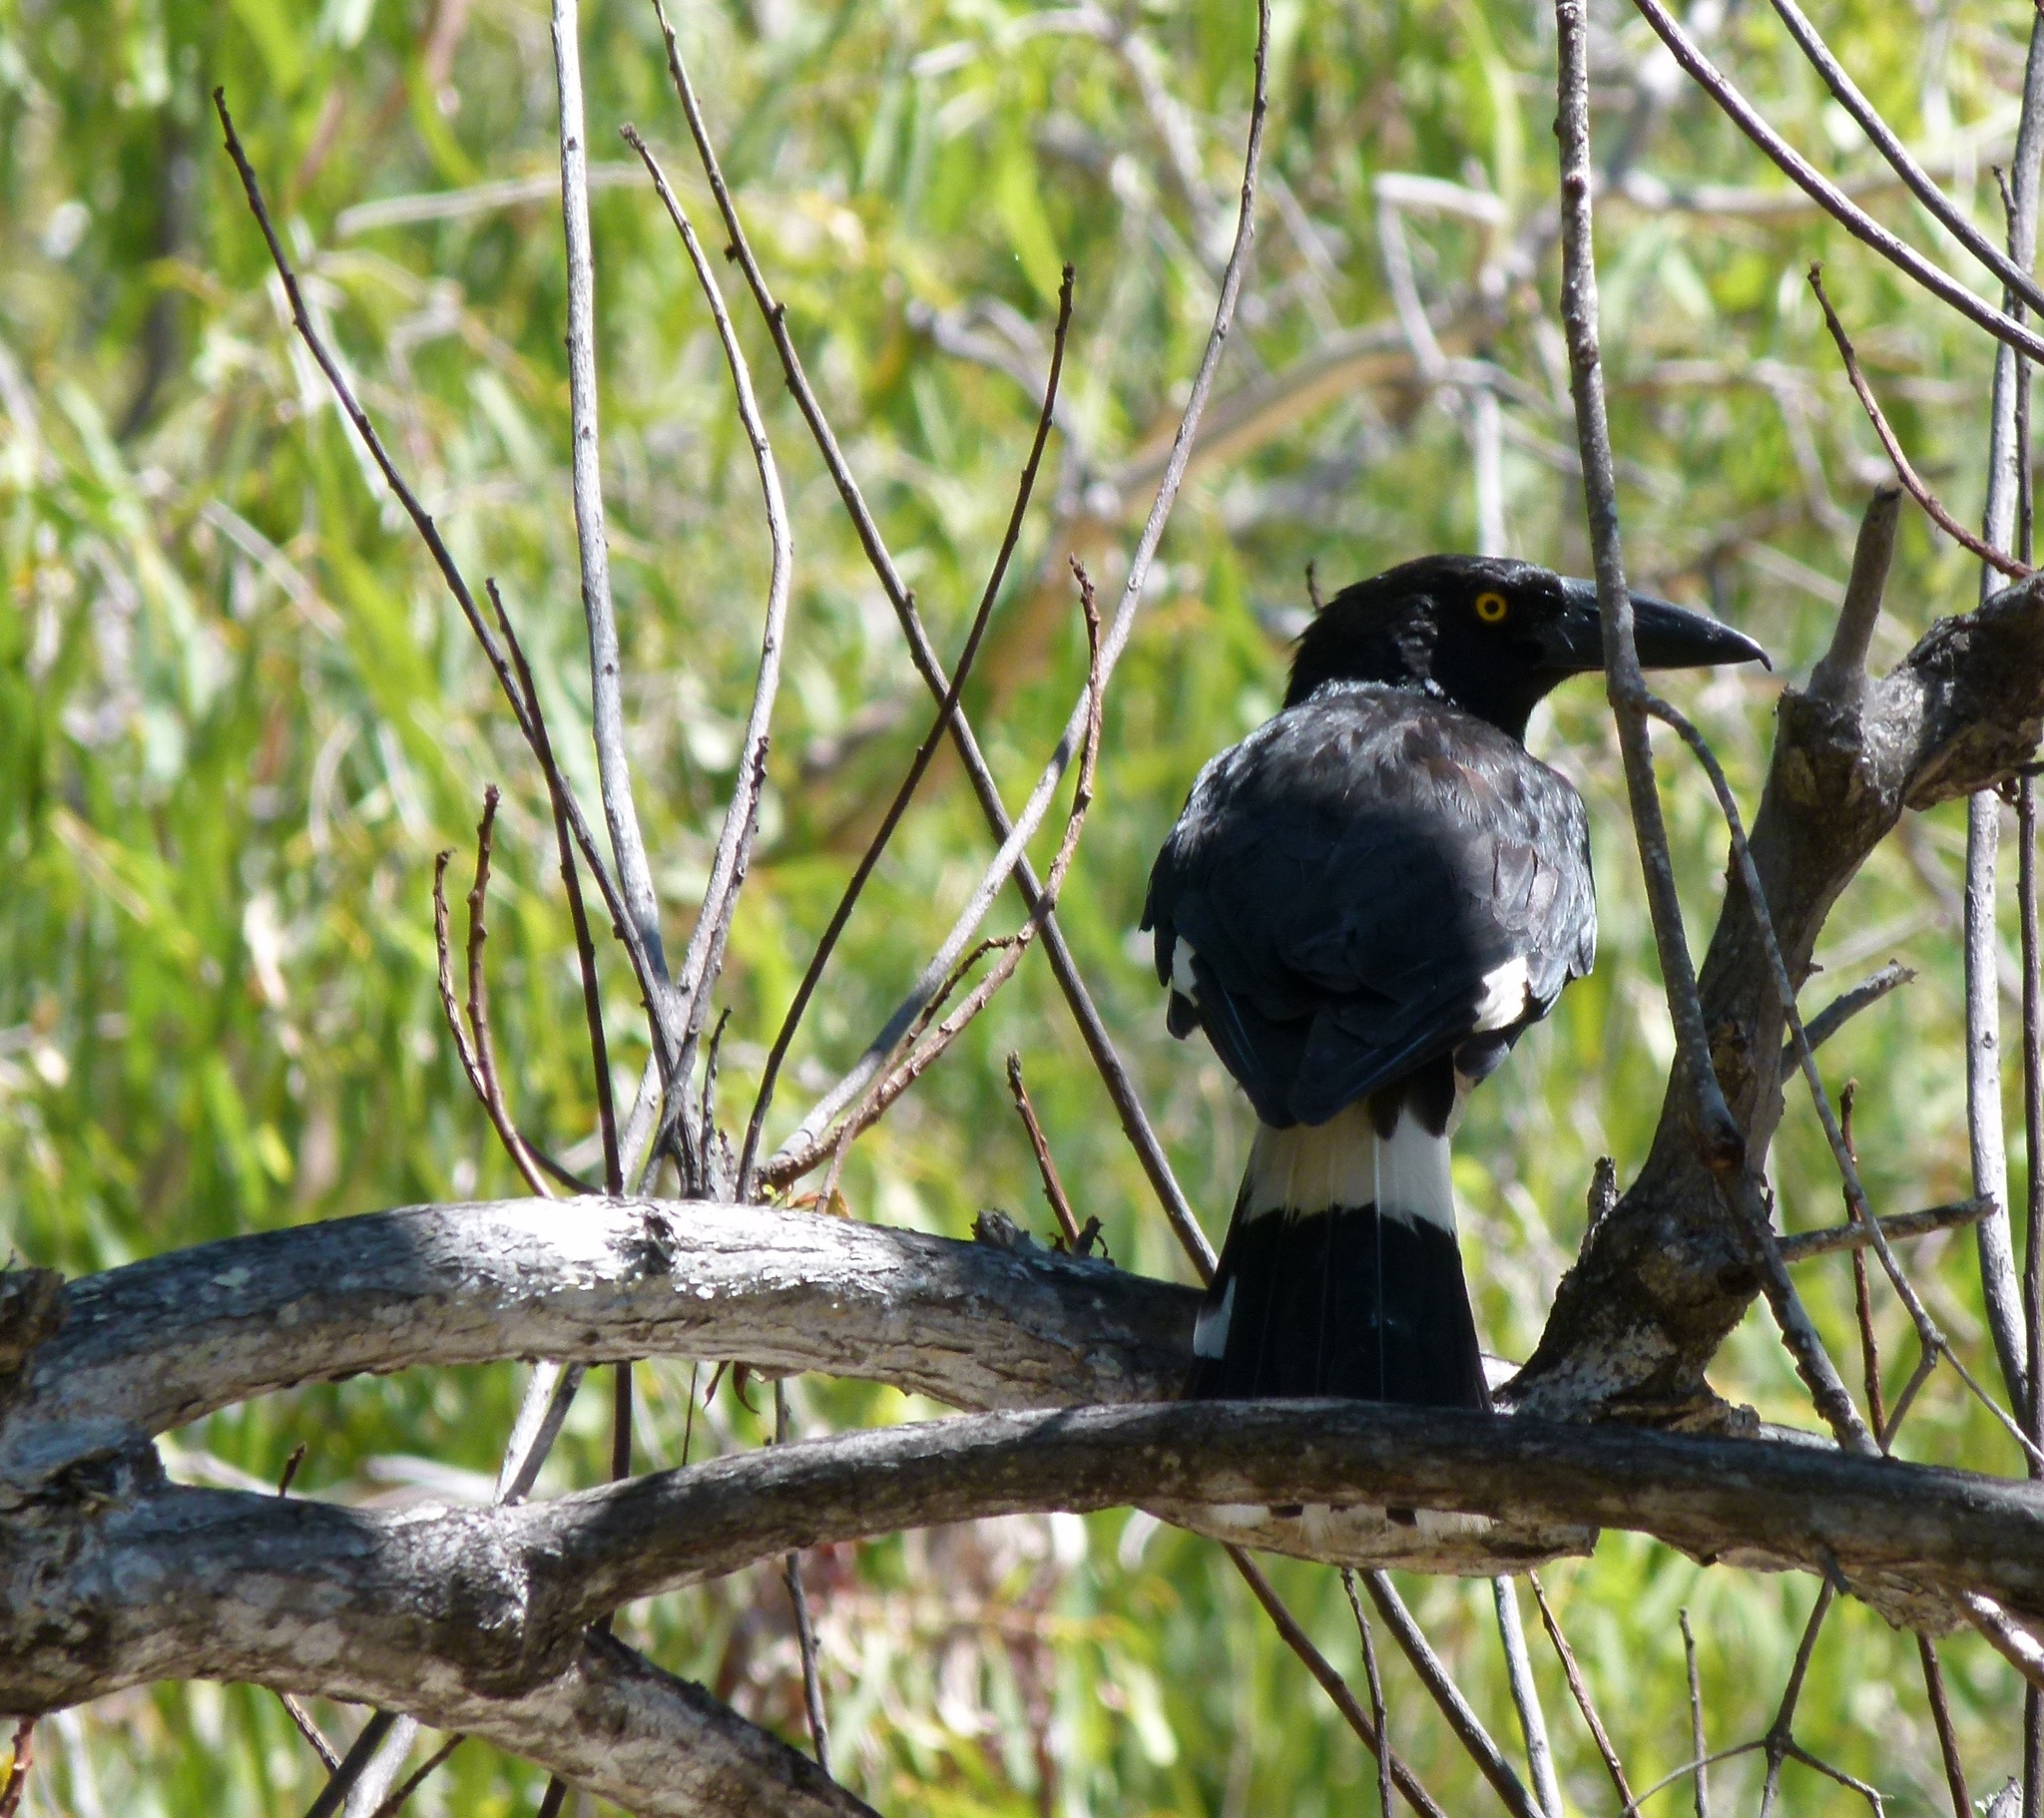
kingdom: Animalia
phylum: Chordata
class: Aves
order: Passeriformes
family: Cracticidae
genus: Strepera
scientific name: Strepera graculina
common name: Pied currawong
